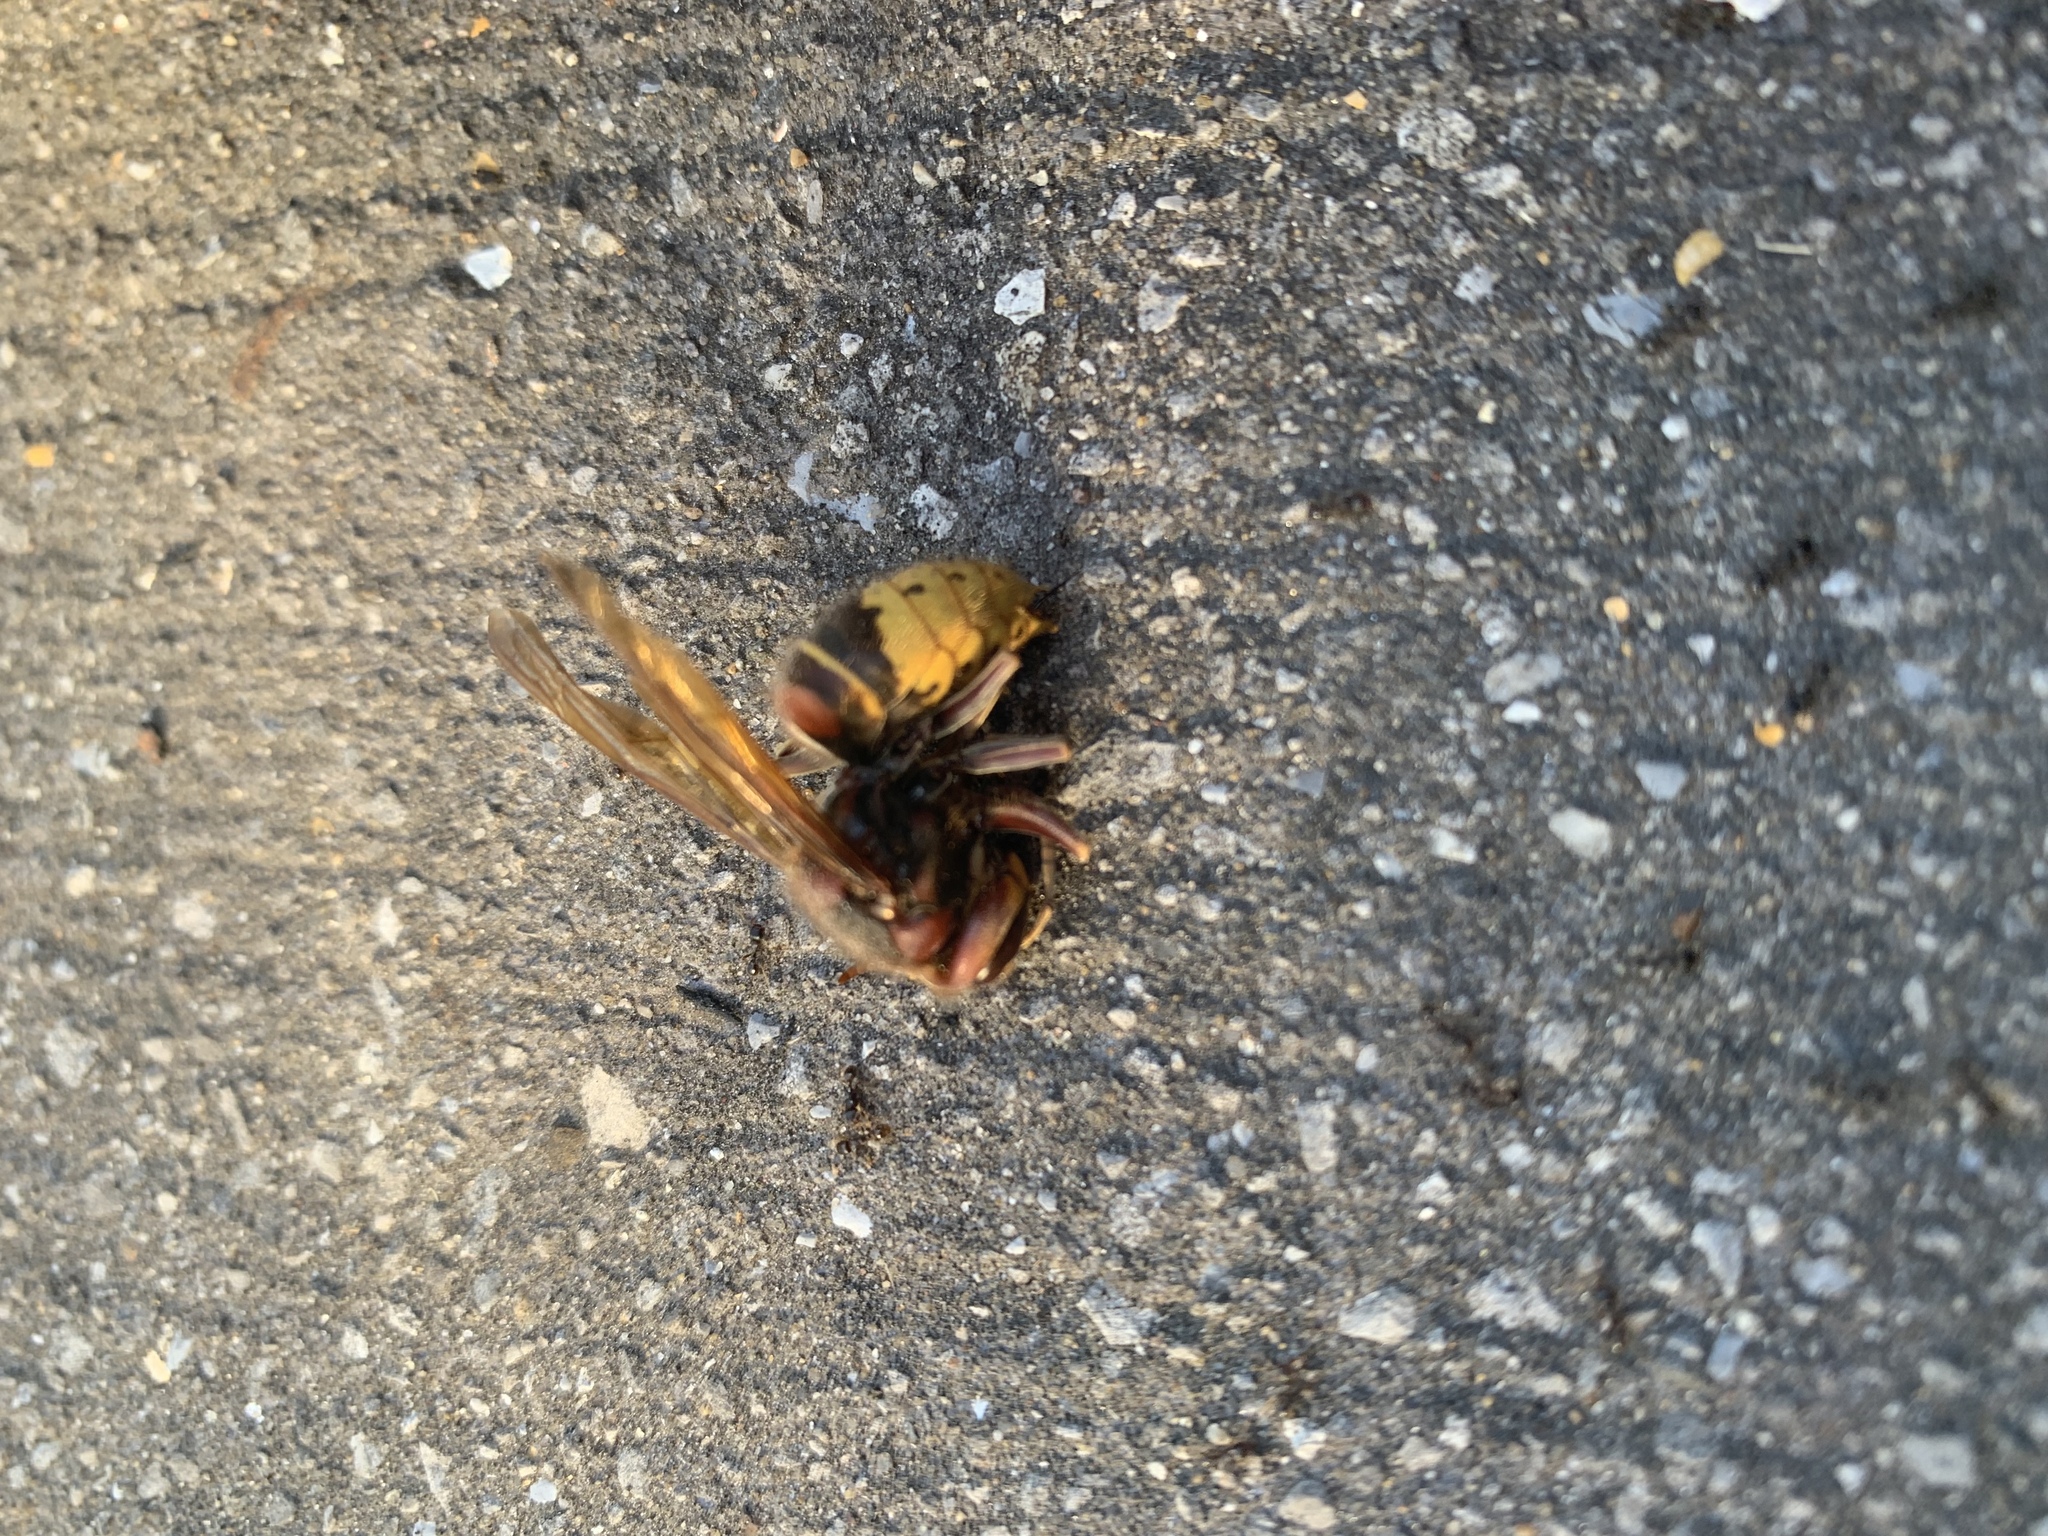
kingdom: Animalia
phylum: Arthropoda
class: Insecta
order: Hymenoptera
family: Vespidae
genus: Vespa
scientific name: Vespa crabro
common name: Hornet
